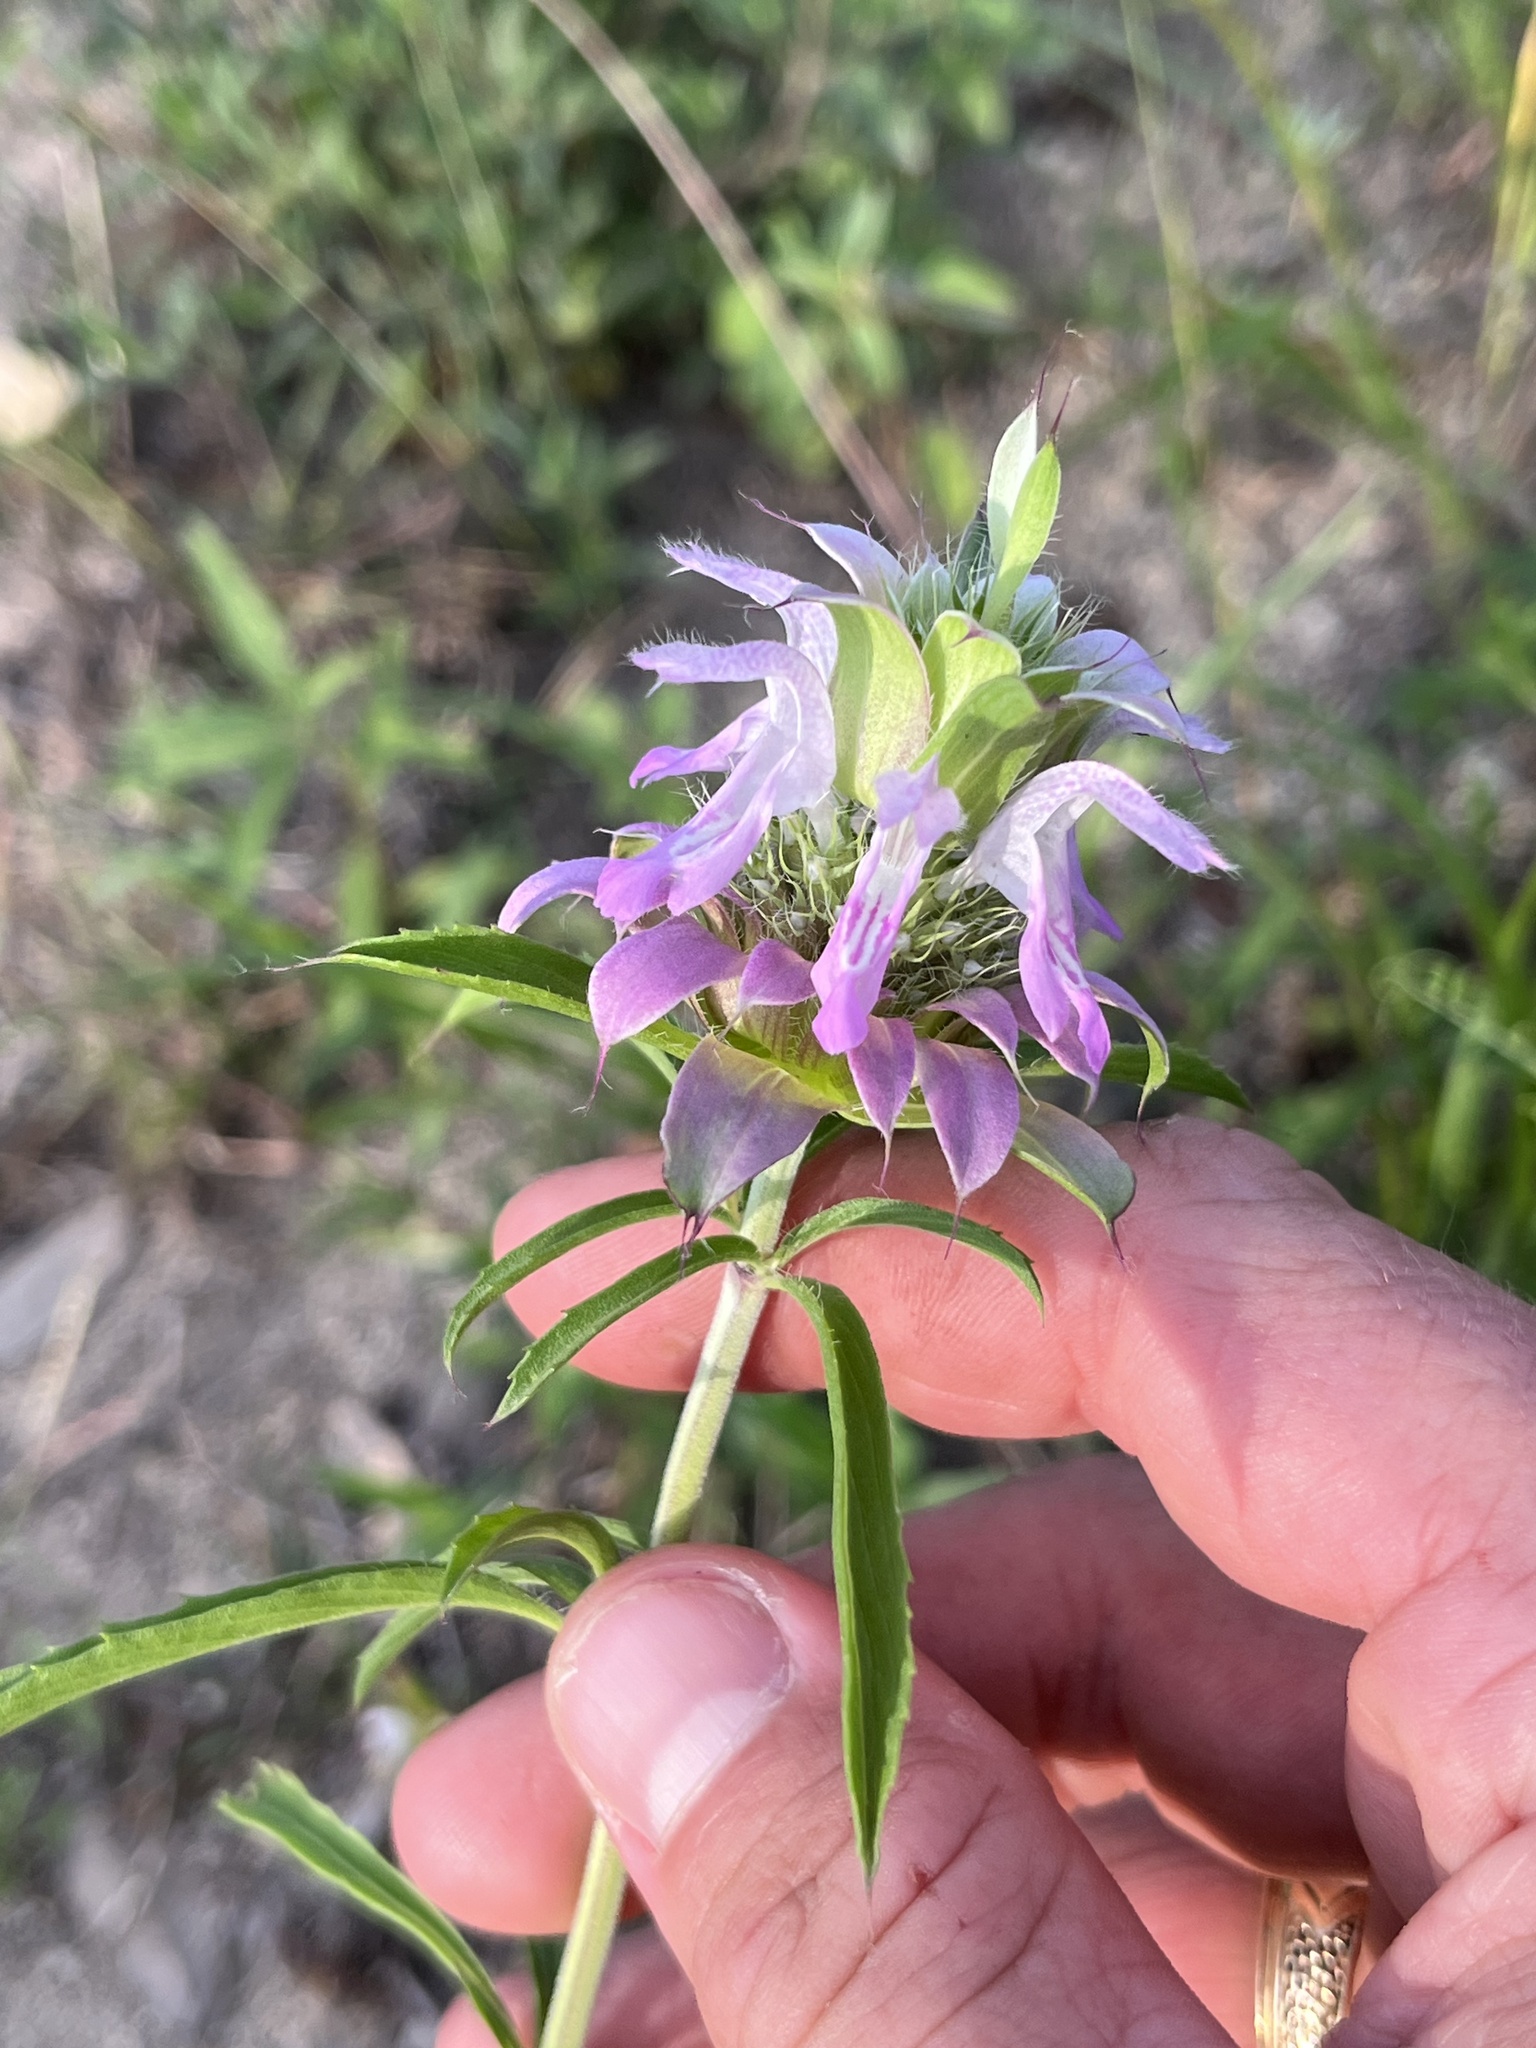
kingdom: Plantae
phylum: Tracheophyta
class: Magnoliopsida
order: Lamiales
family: Lamiaceae
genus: Monarda
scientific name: Monarda citriodora
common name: Lemon beebalm
